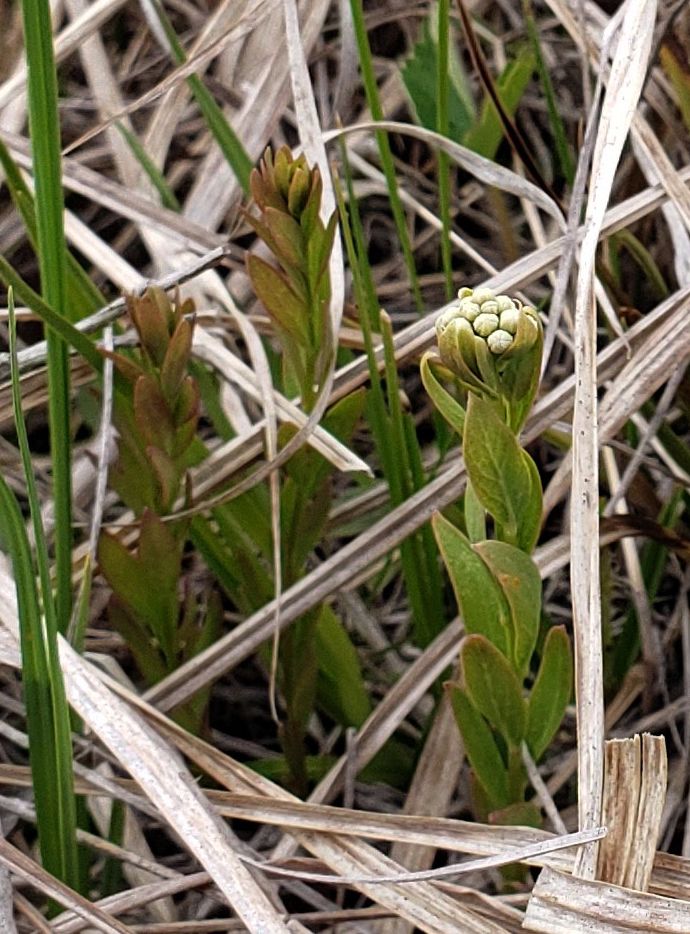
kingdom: Plantae
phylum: Tracheophyta
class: Magnoliopsida
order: Santalales
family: Comandraceae
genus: Comandra
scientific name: Comandra umbellata
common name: Bastard toadflax
